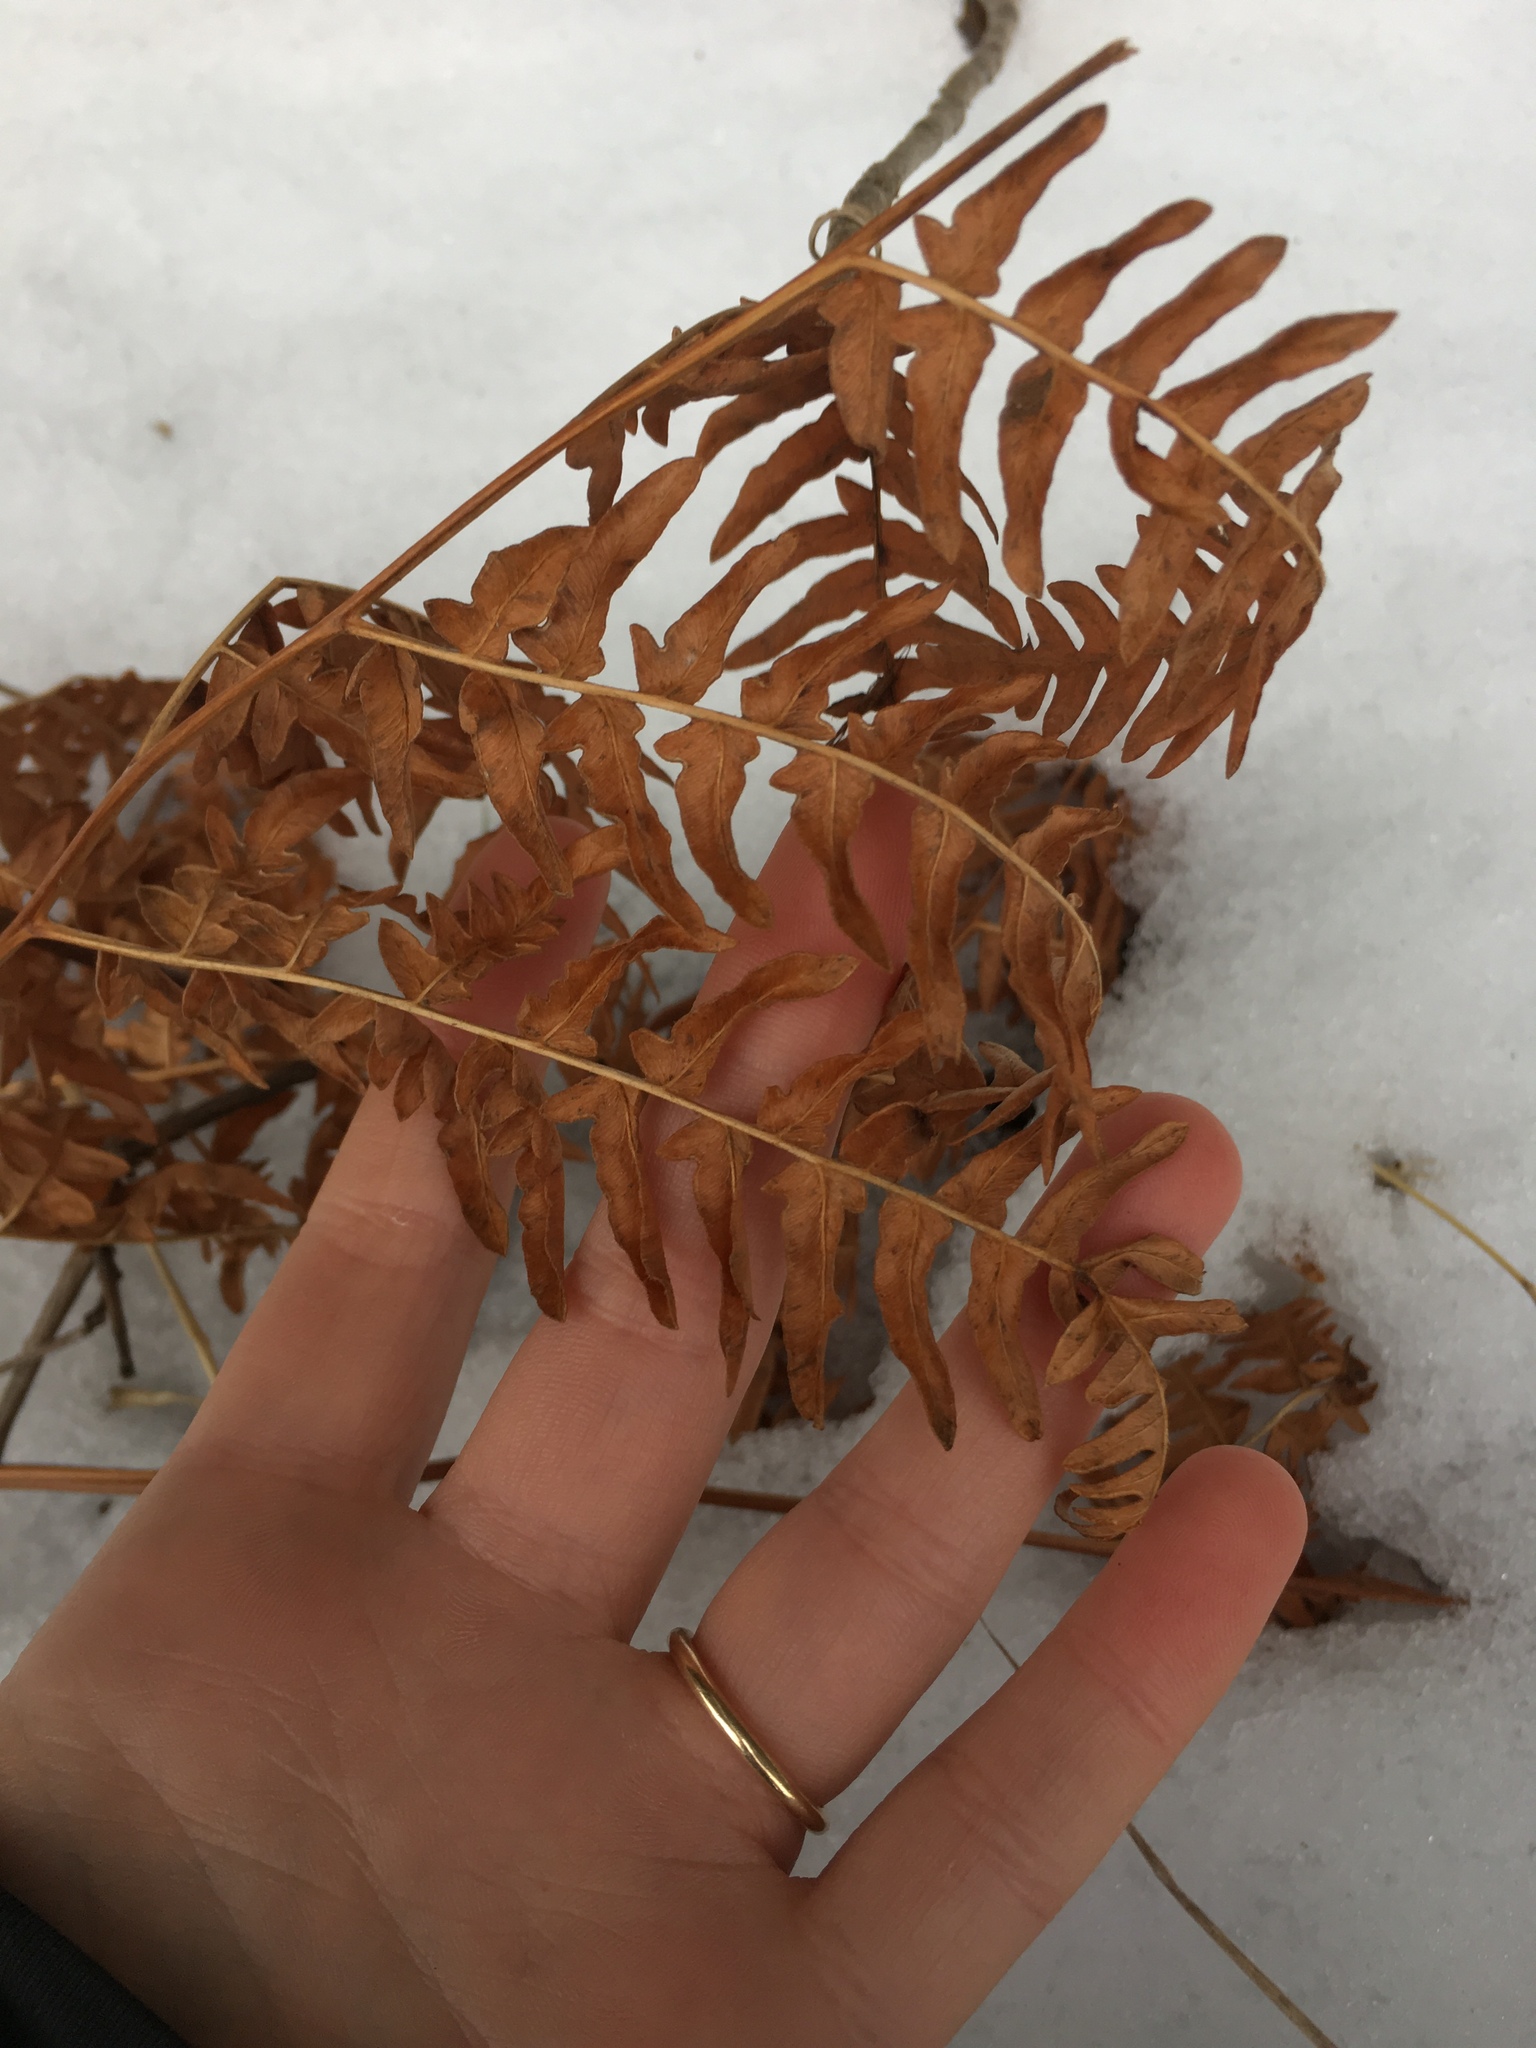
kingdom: Plantae
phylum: Tracheophyta
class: Polypodiopsida
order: Polypodiales
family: Dennstaedtiaceae
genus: Pteridium
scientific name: Pteridium aquilinum
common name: Bracken
